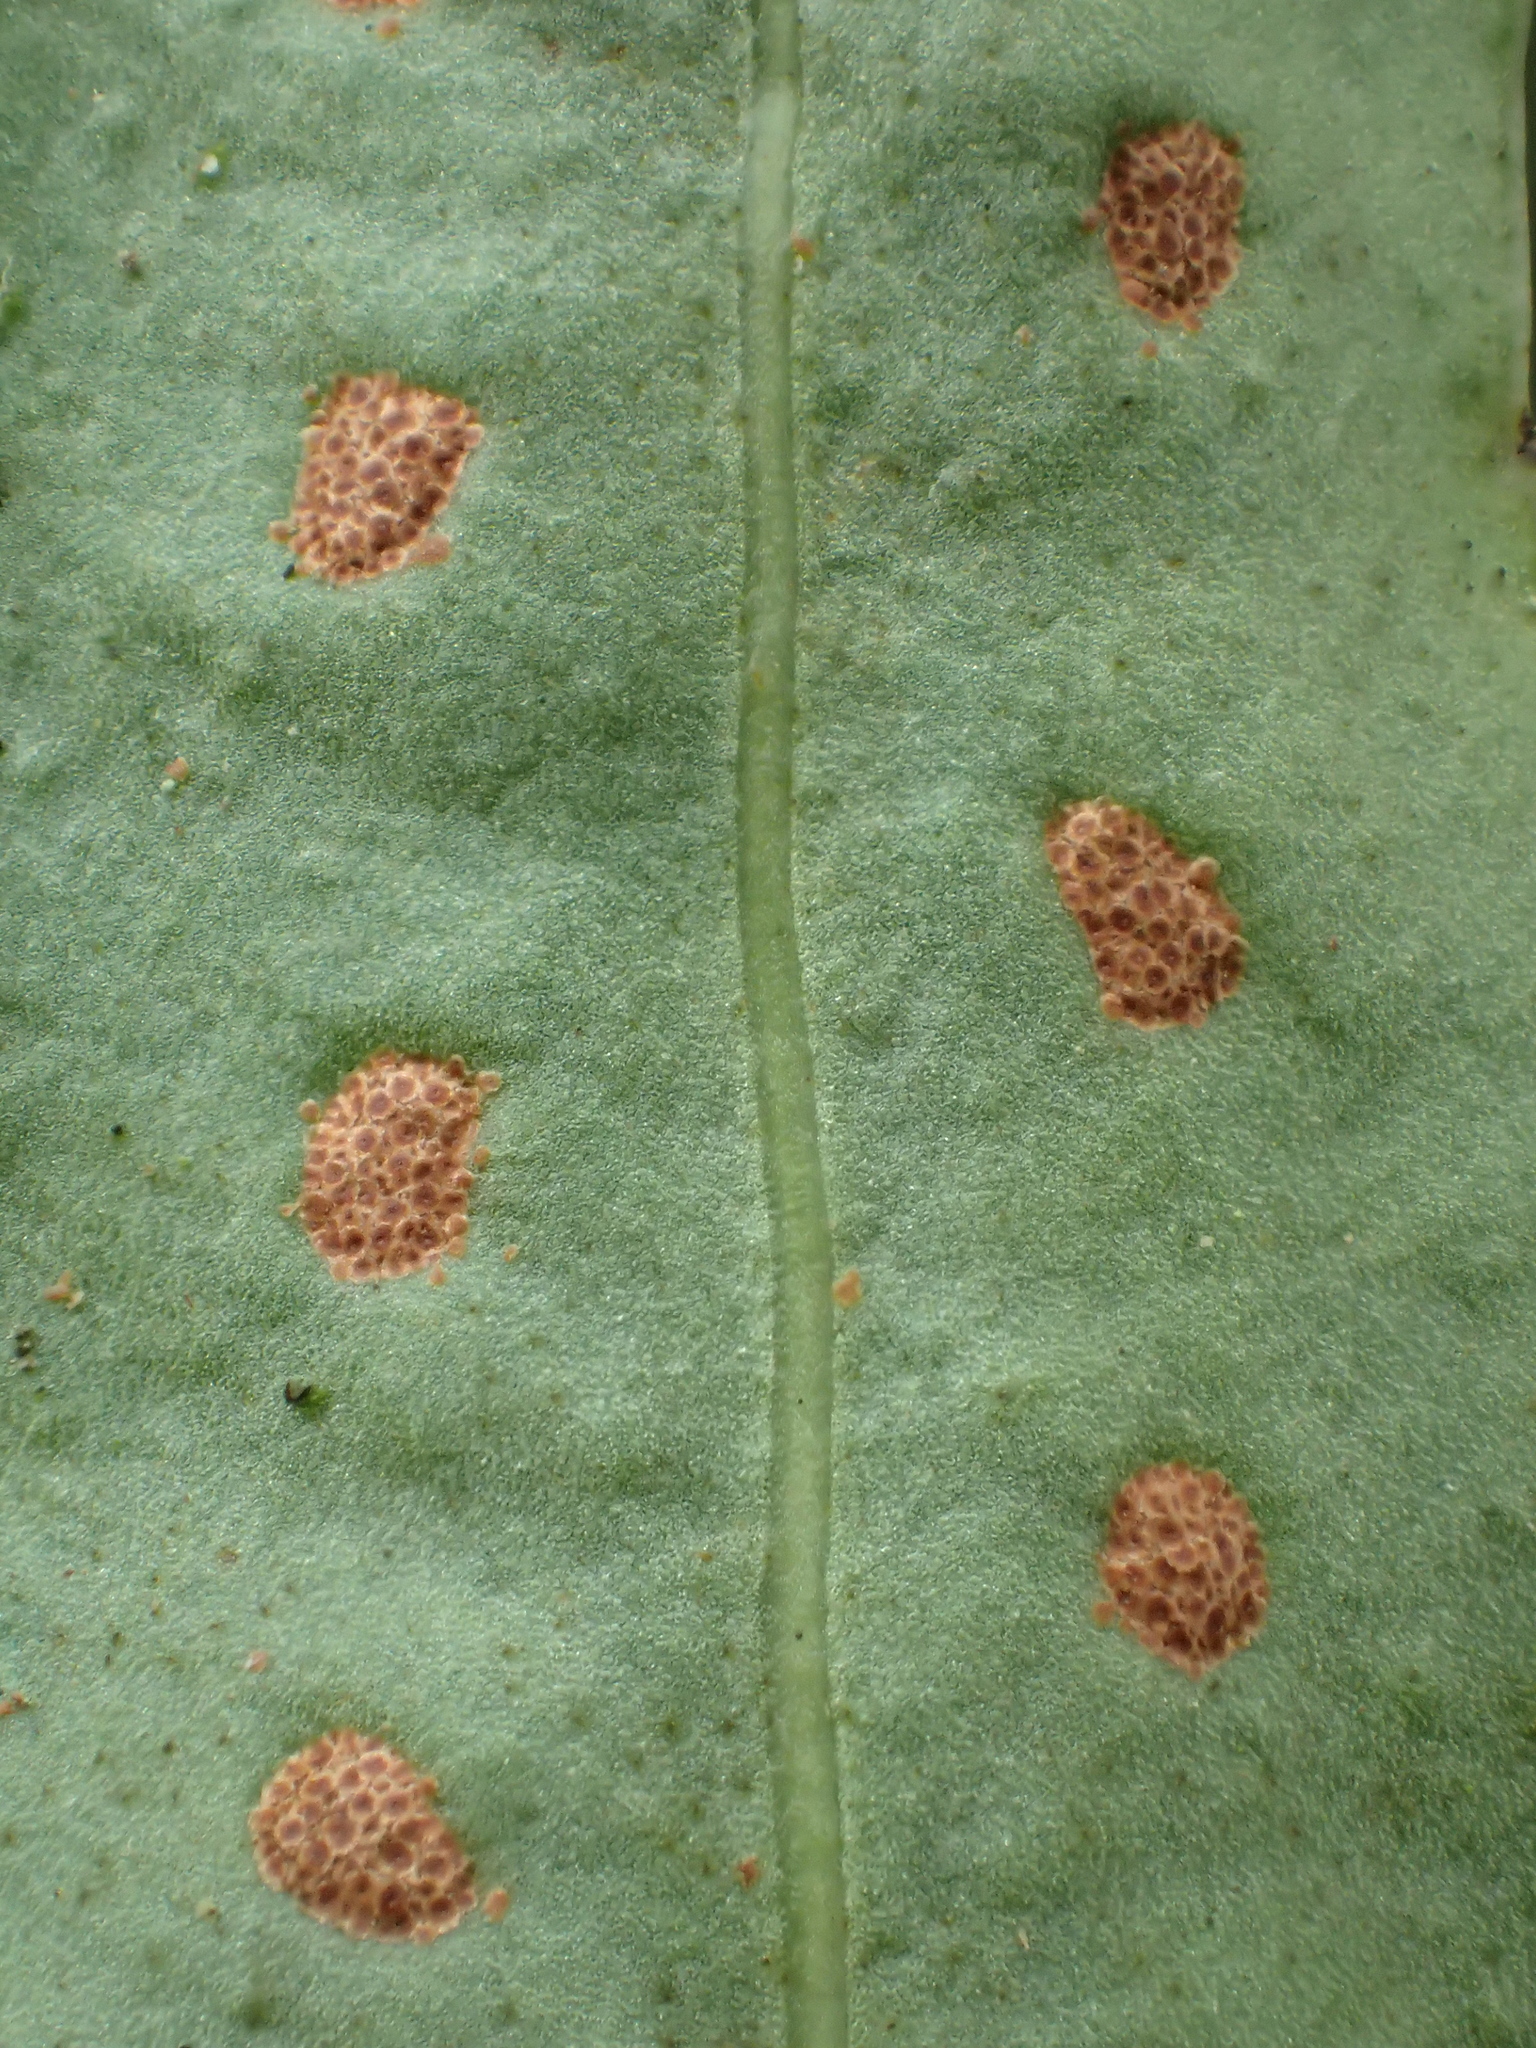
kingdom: Plantae
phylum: Tracheophyta
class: Polypodiopsida
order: Polypodiales
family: Polypodiaceae
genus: Lepisorus
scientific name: Lepisorus obscurevenulosus
